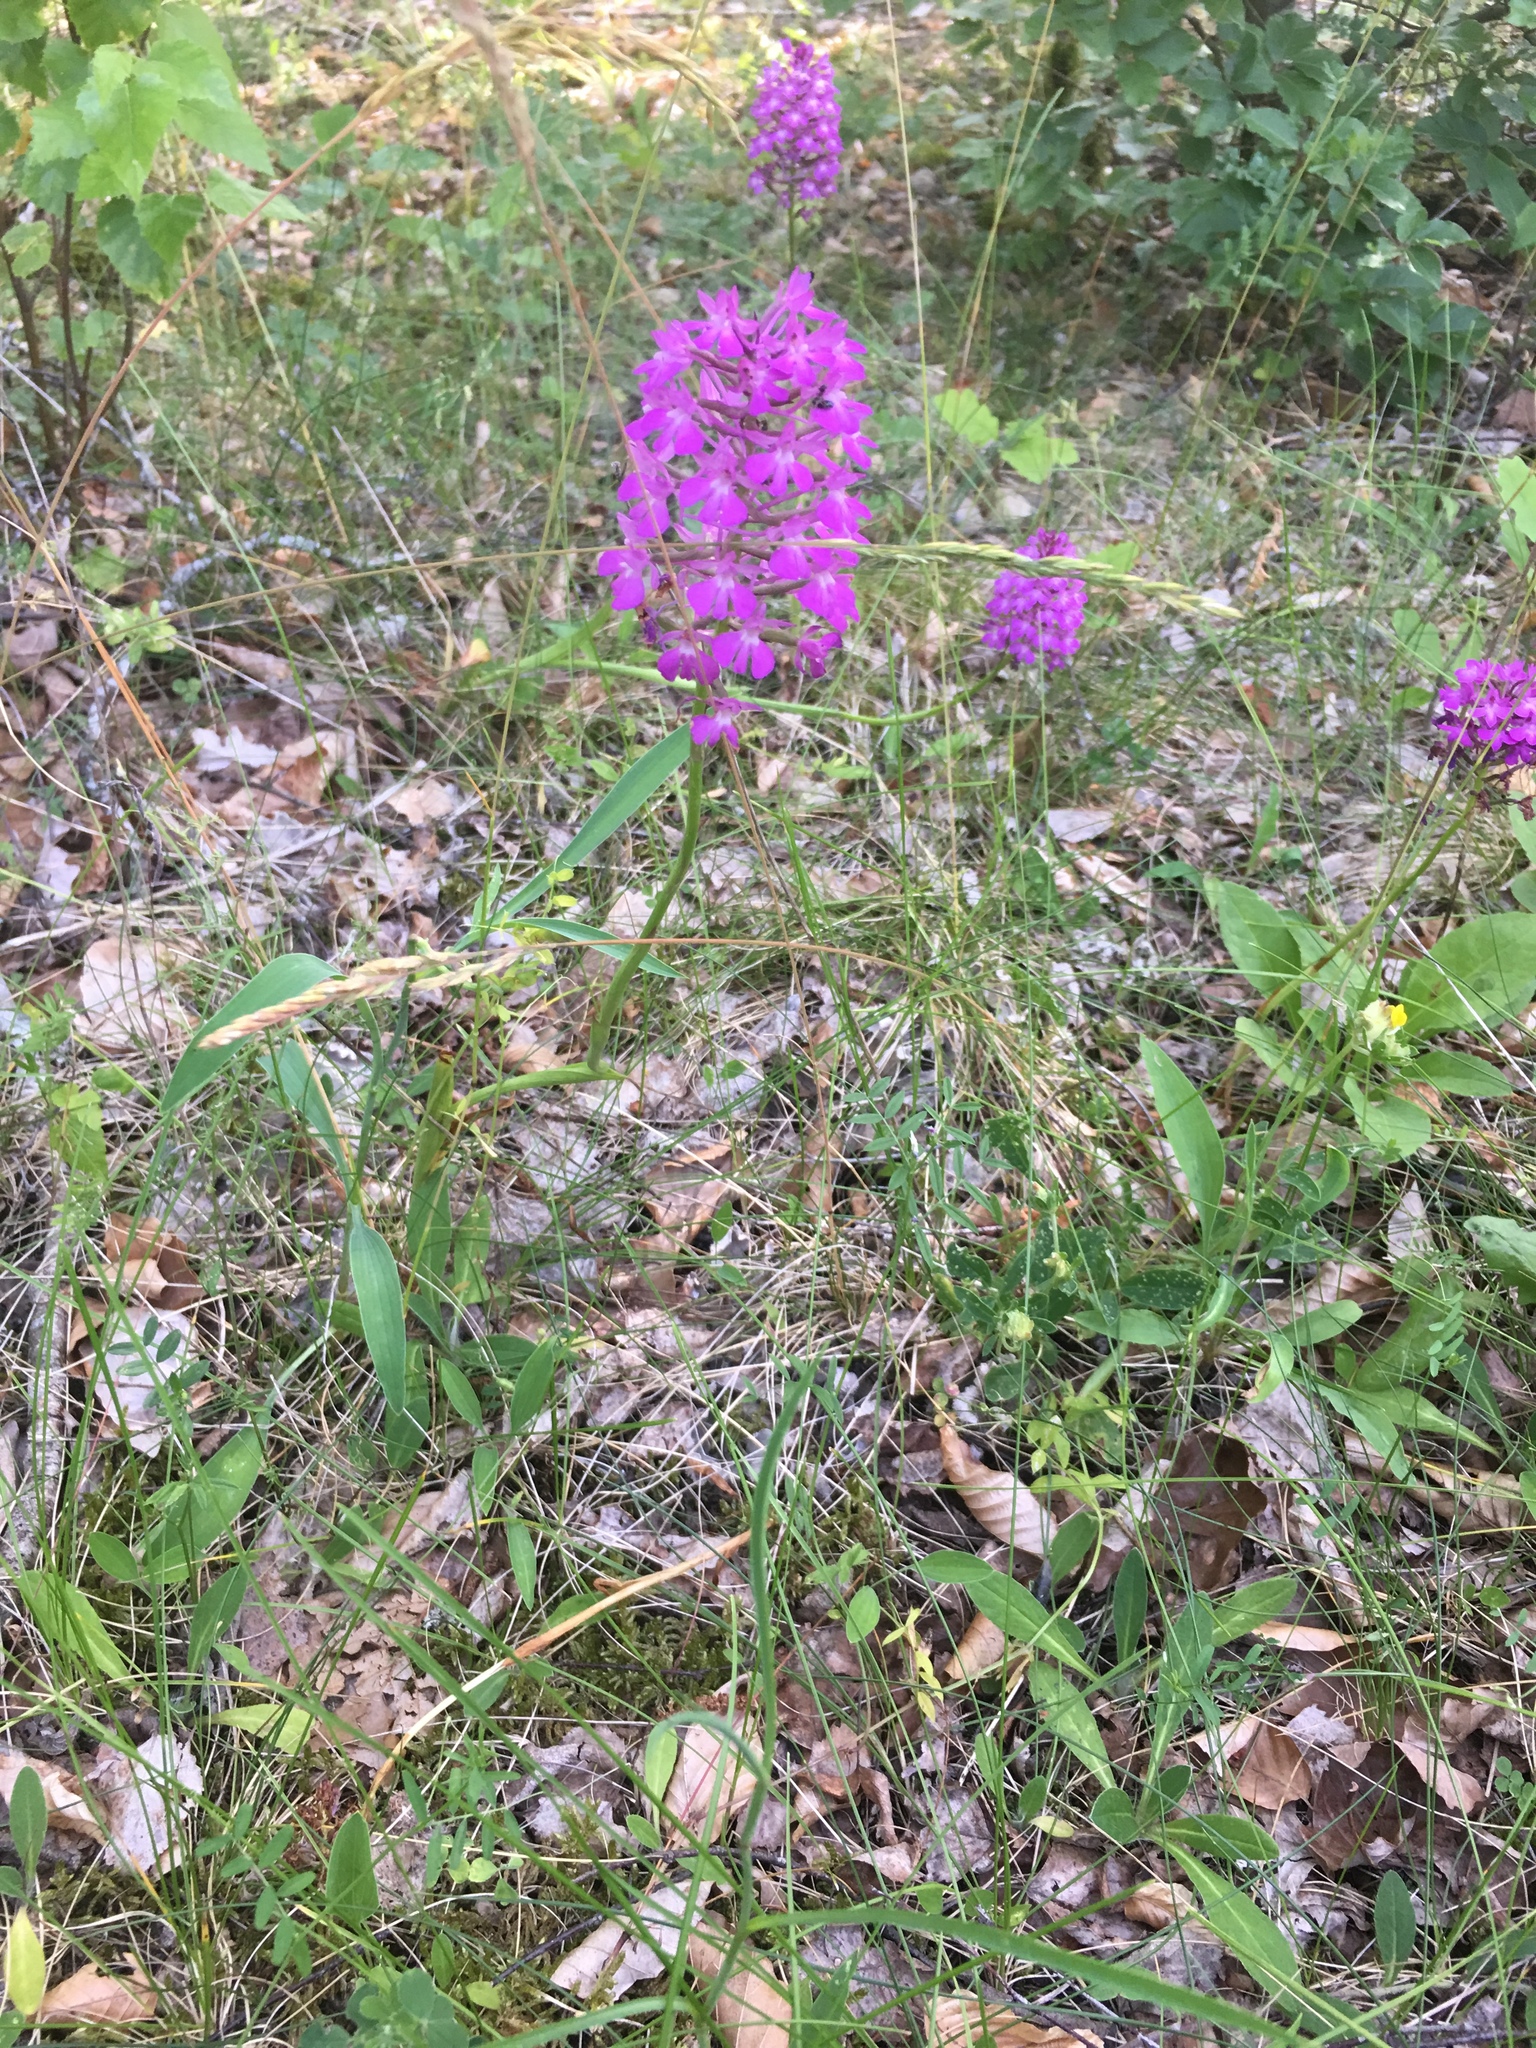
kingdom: Plantae
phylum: Tracheophyta
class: Liliopsida
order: Asparagales
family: Orchidaceae
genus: Anacamptis
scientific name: Anacamptis pyramidalis
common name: Pyramidal orchid
